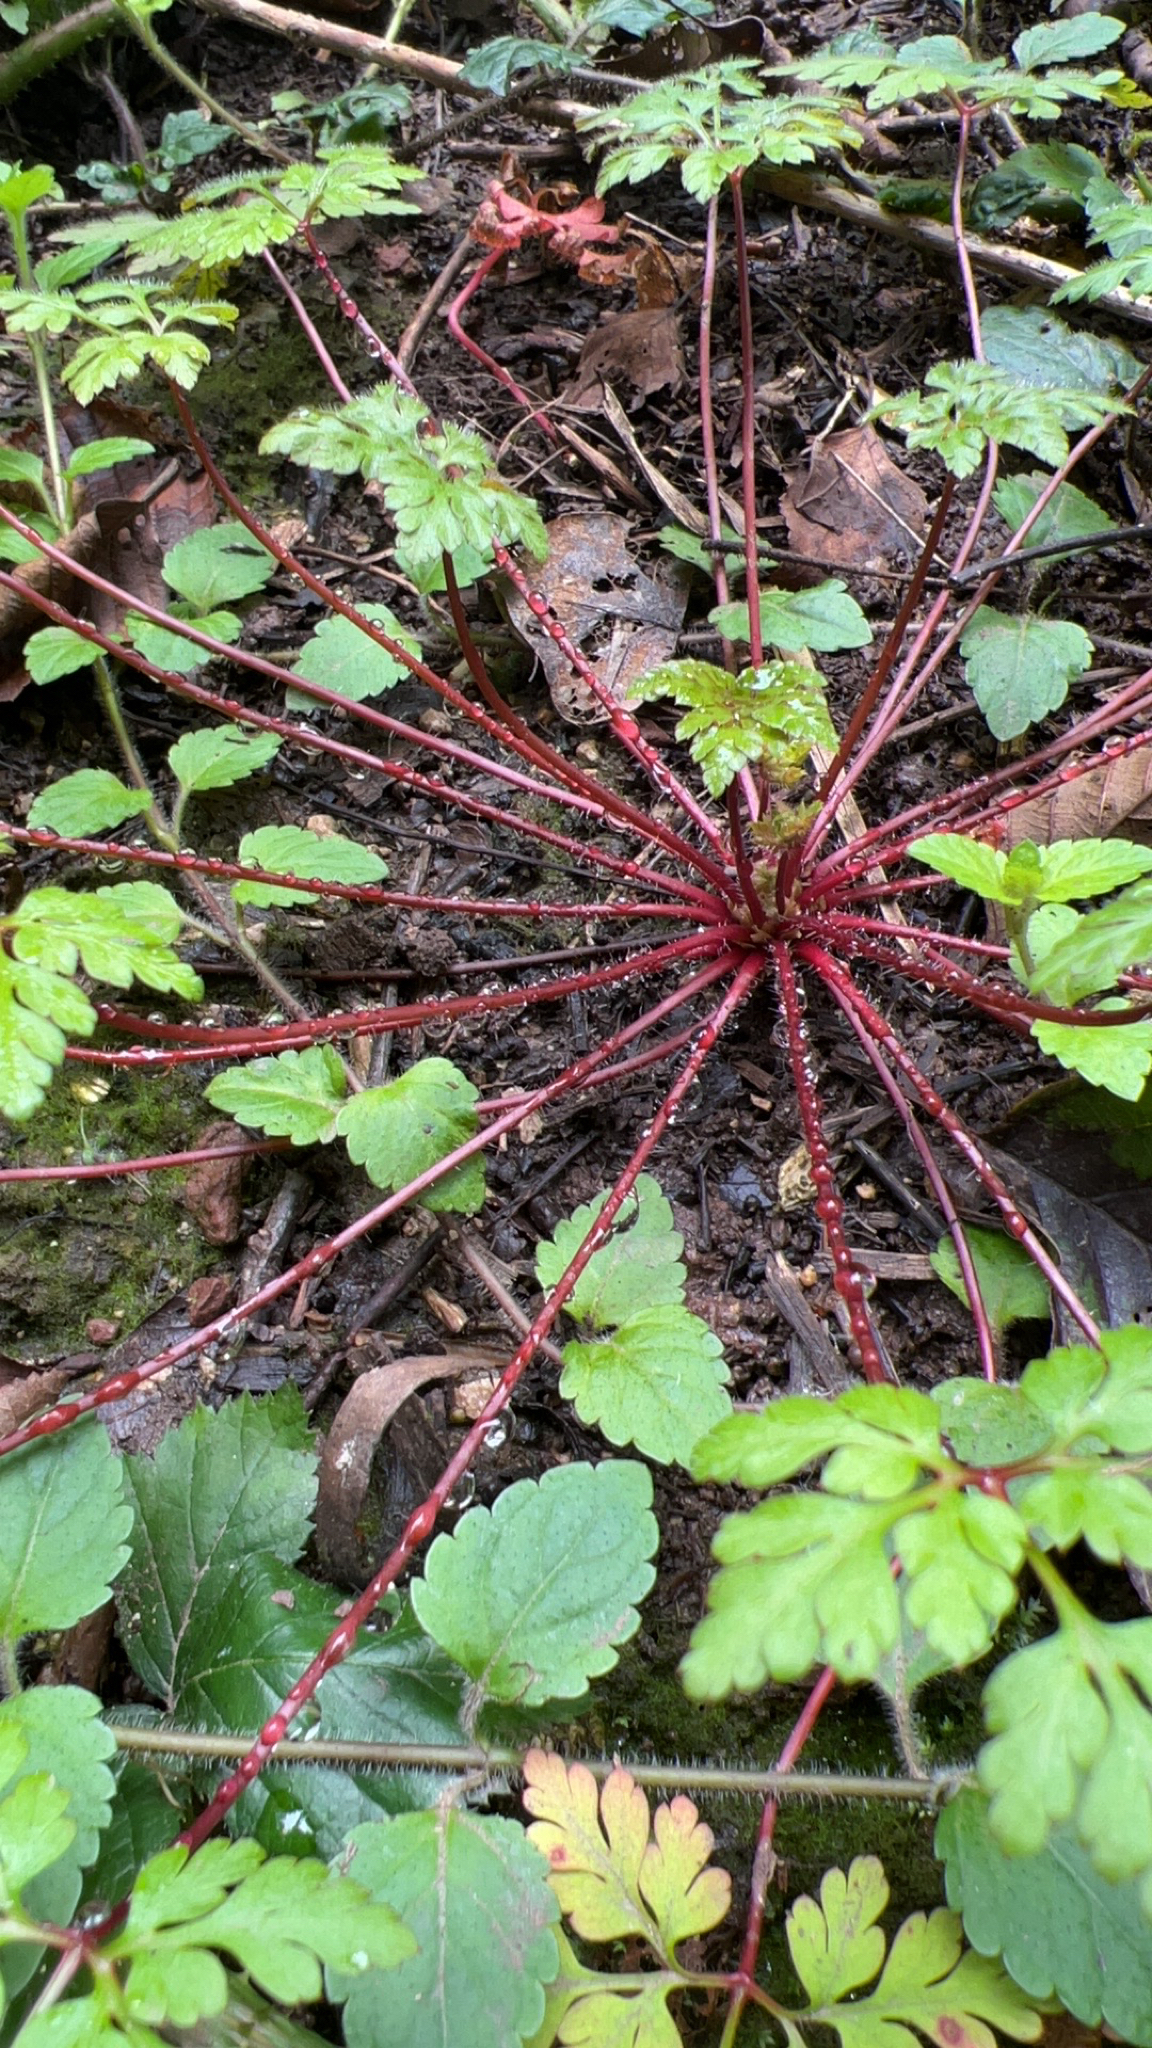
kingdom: Plantae
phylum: Tracheophyta
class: Magnoliopsida
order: Geraniales
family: Geraniaceae
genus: Geranium
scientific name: Geranium robertianum
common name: Herb-robert
